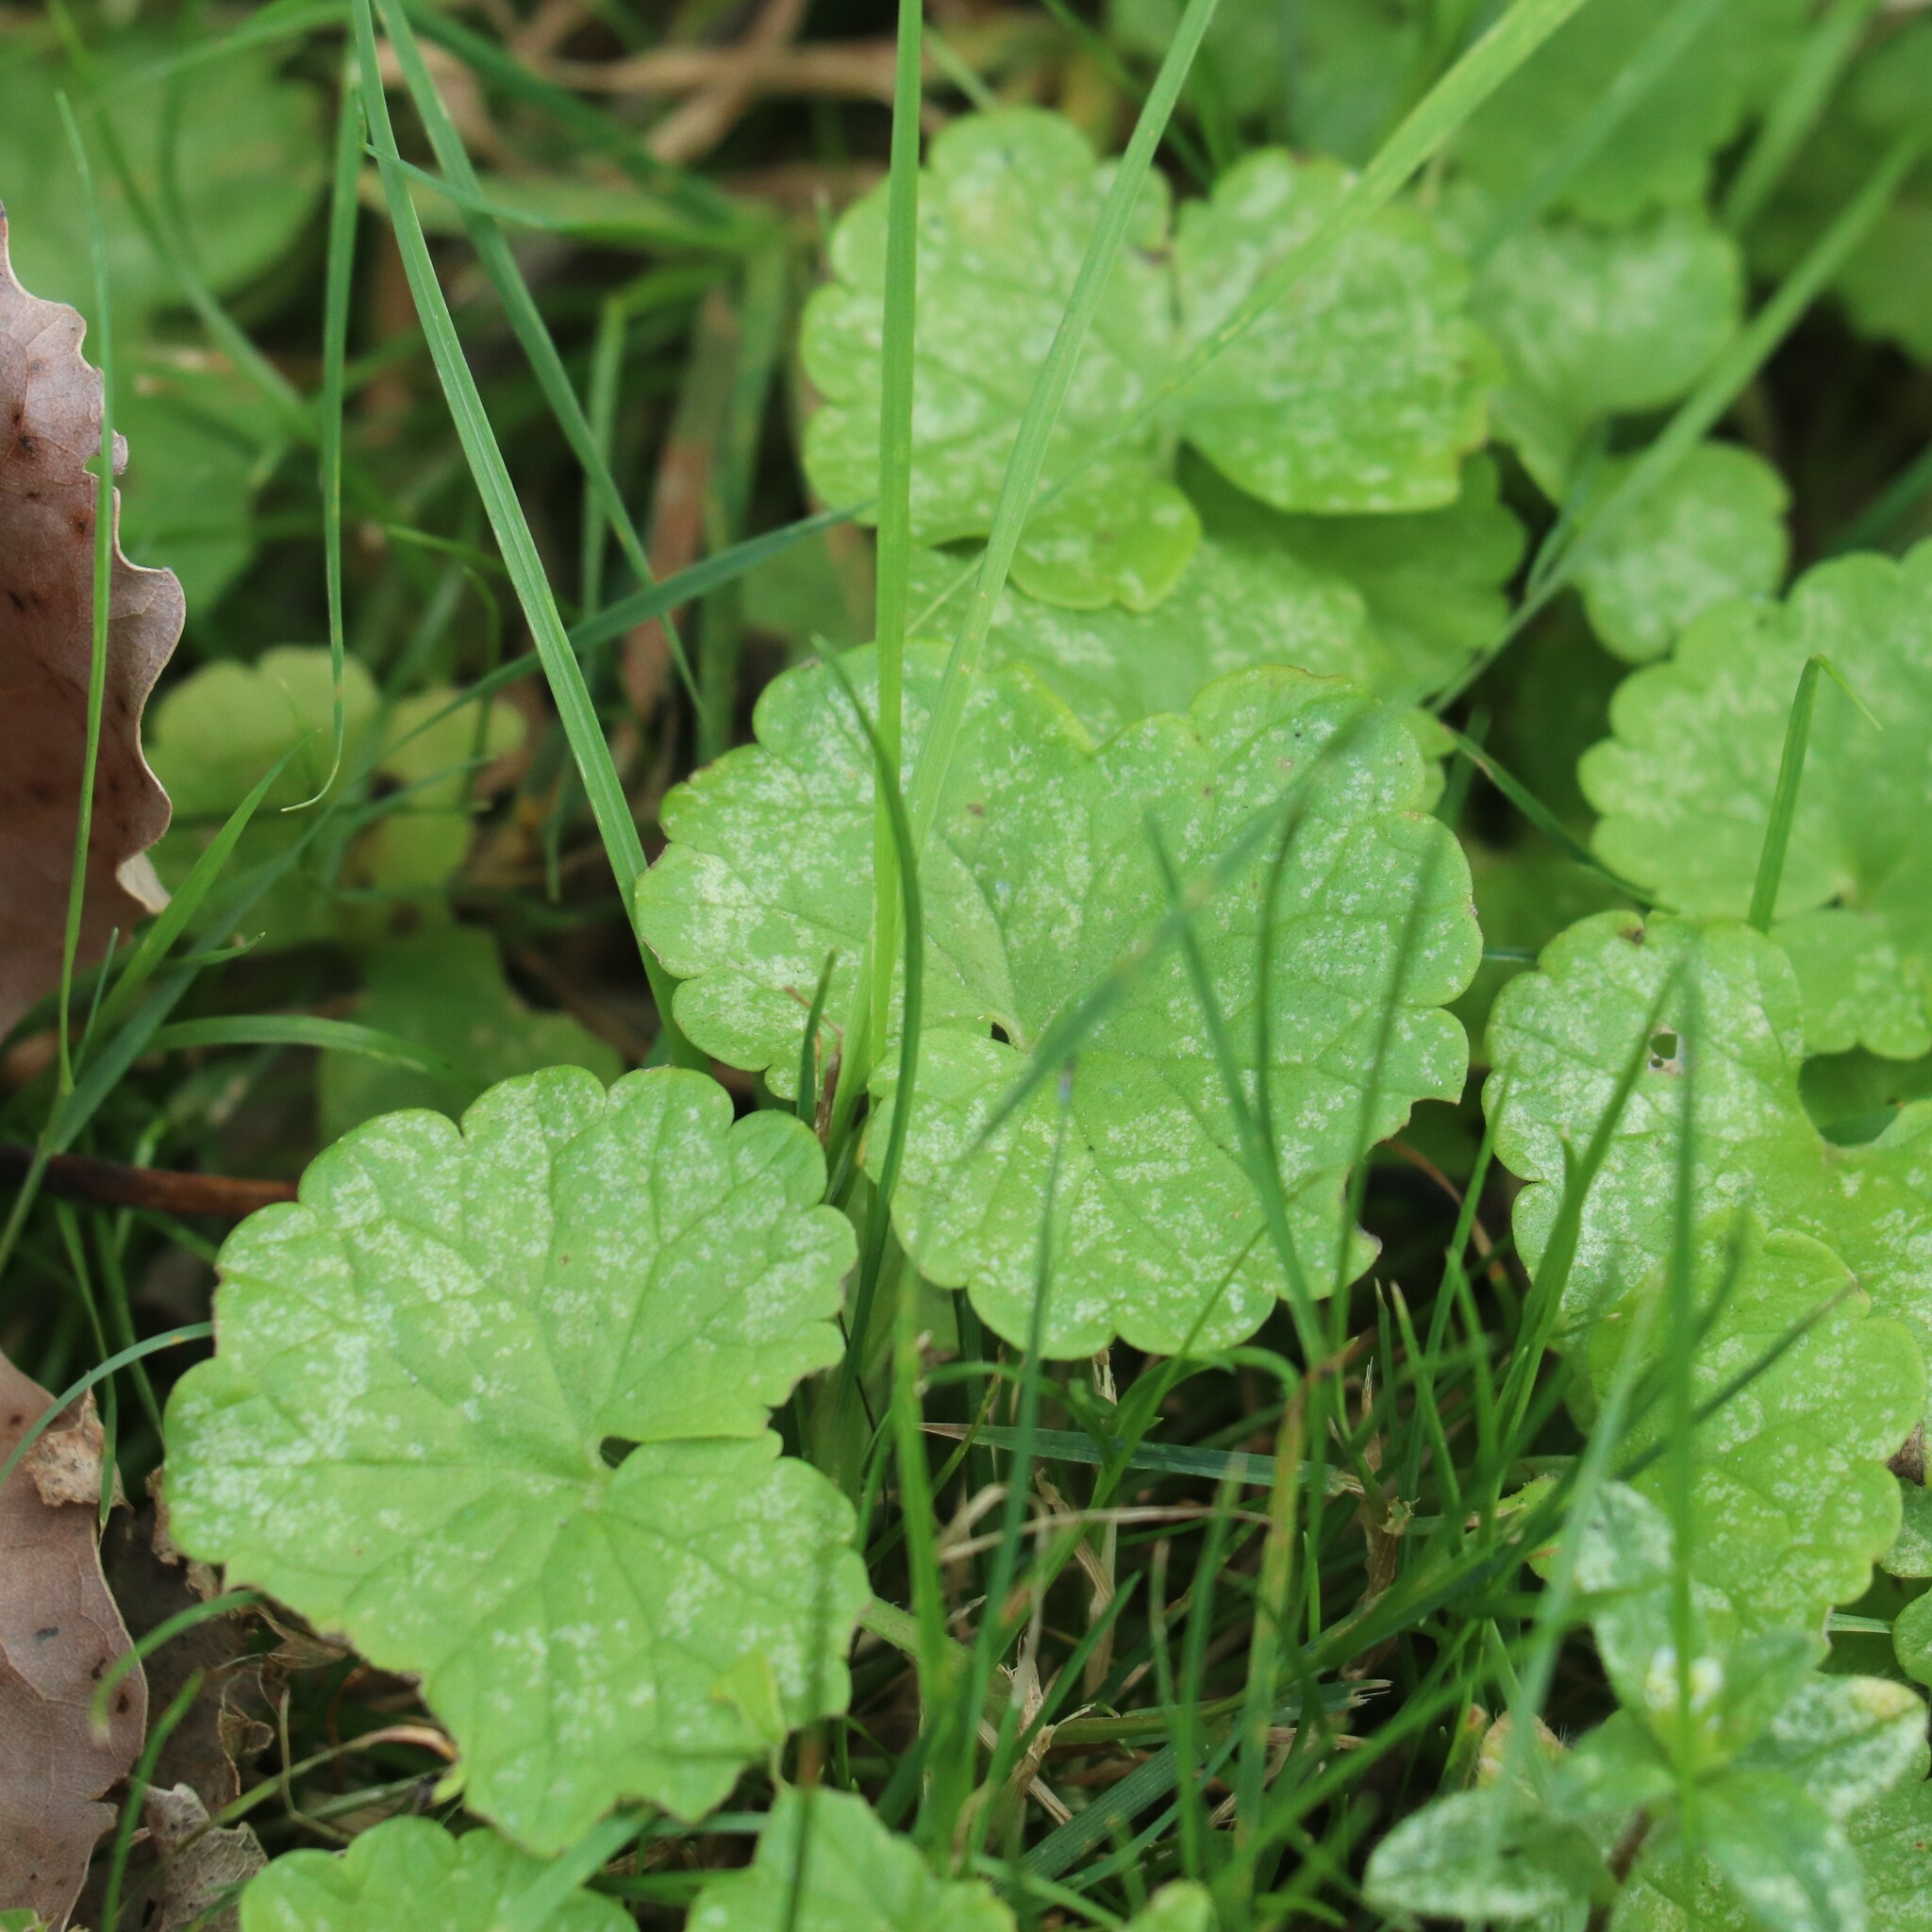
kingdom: Plantae
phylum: Tracheophyta
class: Magnoliopsida
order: Lamiales
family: Lamiaceae
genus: Glechoma
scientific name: Glechoma hederacea
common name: Ground ivy
